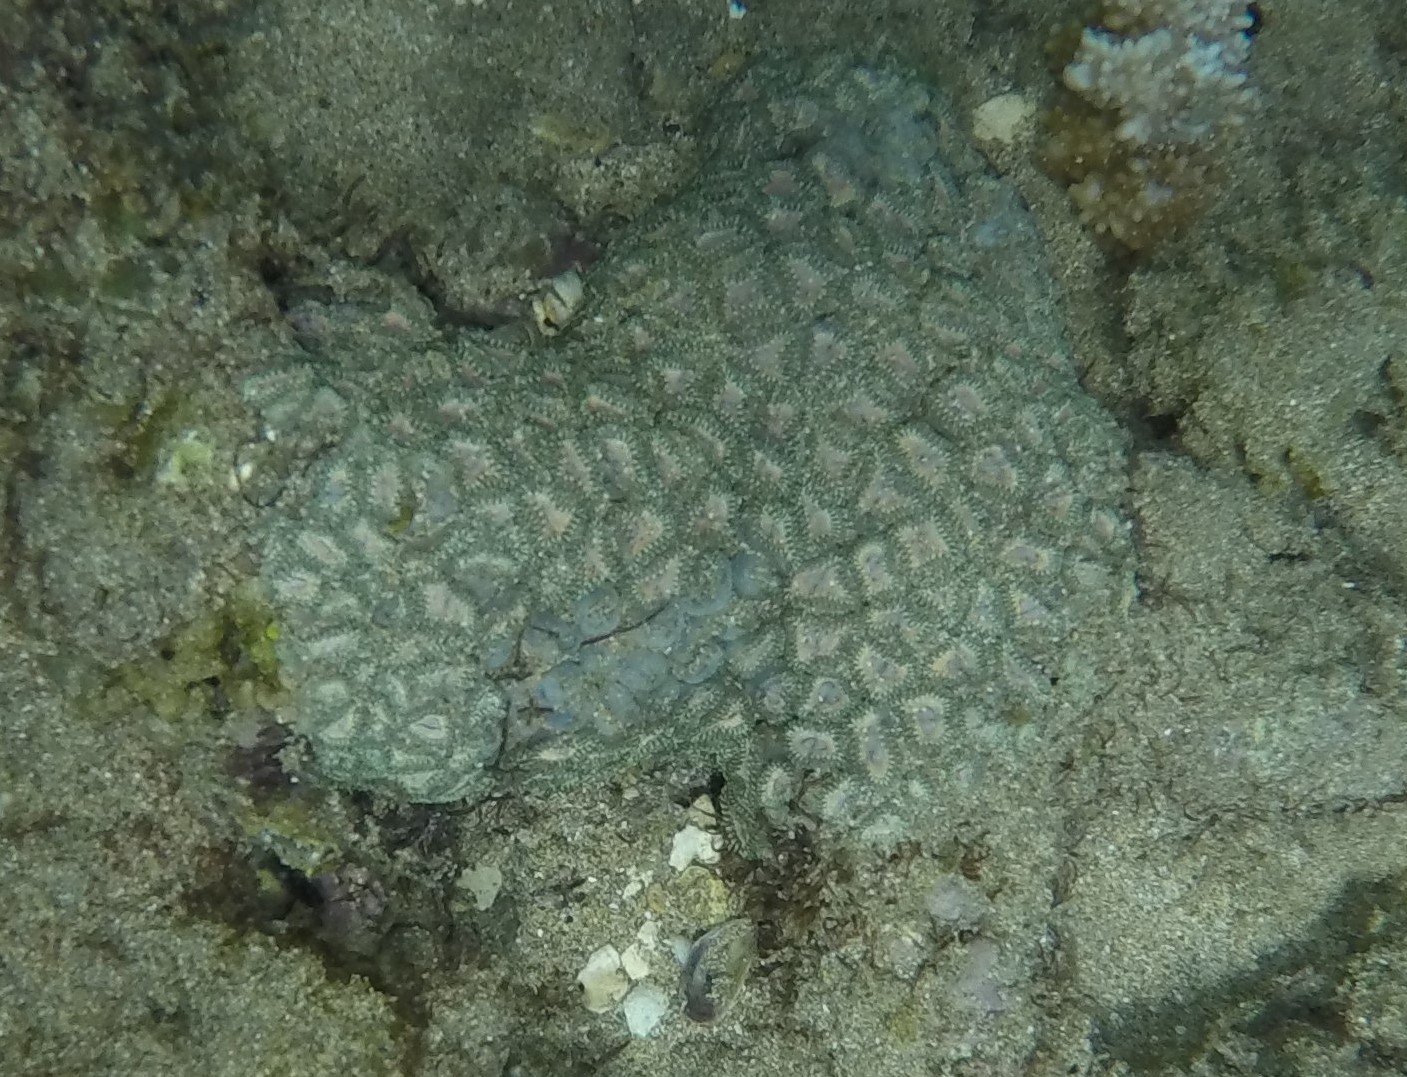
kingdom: Animalia
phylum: Cnidaria
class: Anthozoa
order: Zoantharia
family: Zoanthidae
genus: Zoanthus
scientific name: Zoanthus kuroshio
